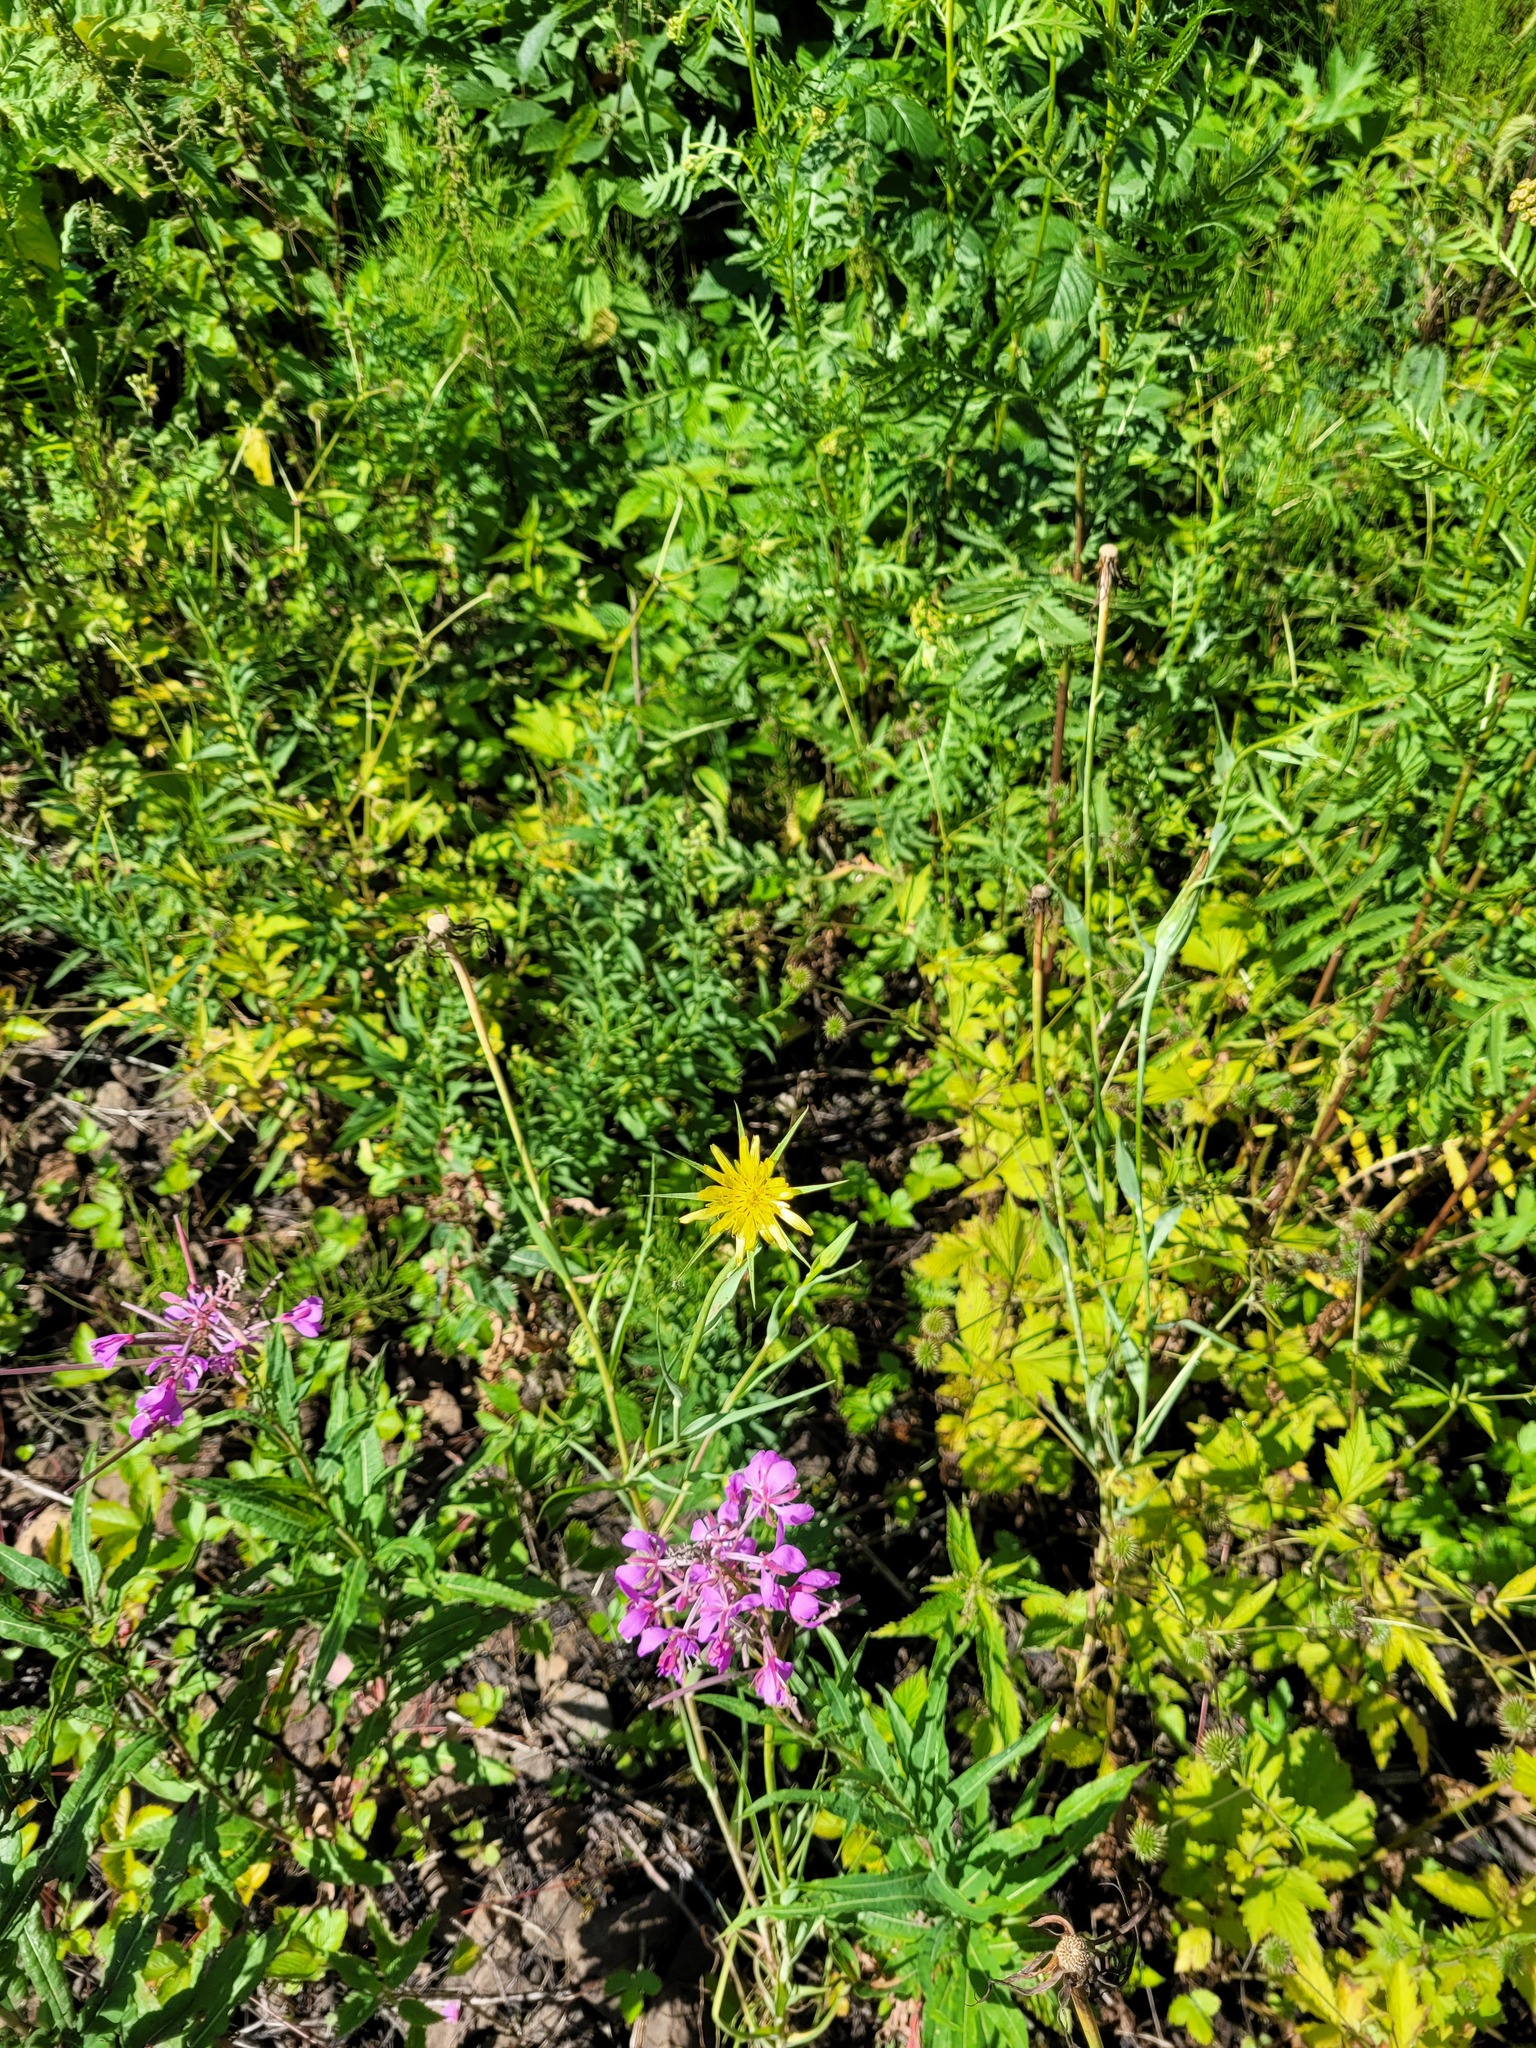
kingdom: Plantae
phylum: Tracheophyta
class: Magnoliopsida
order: Asterales
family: Asteraceae
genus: Tragopogon
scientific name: Tragopogon dubius
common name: Yellow salsify
